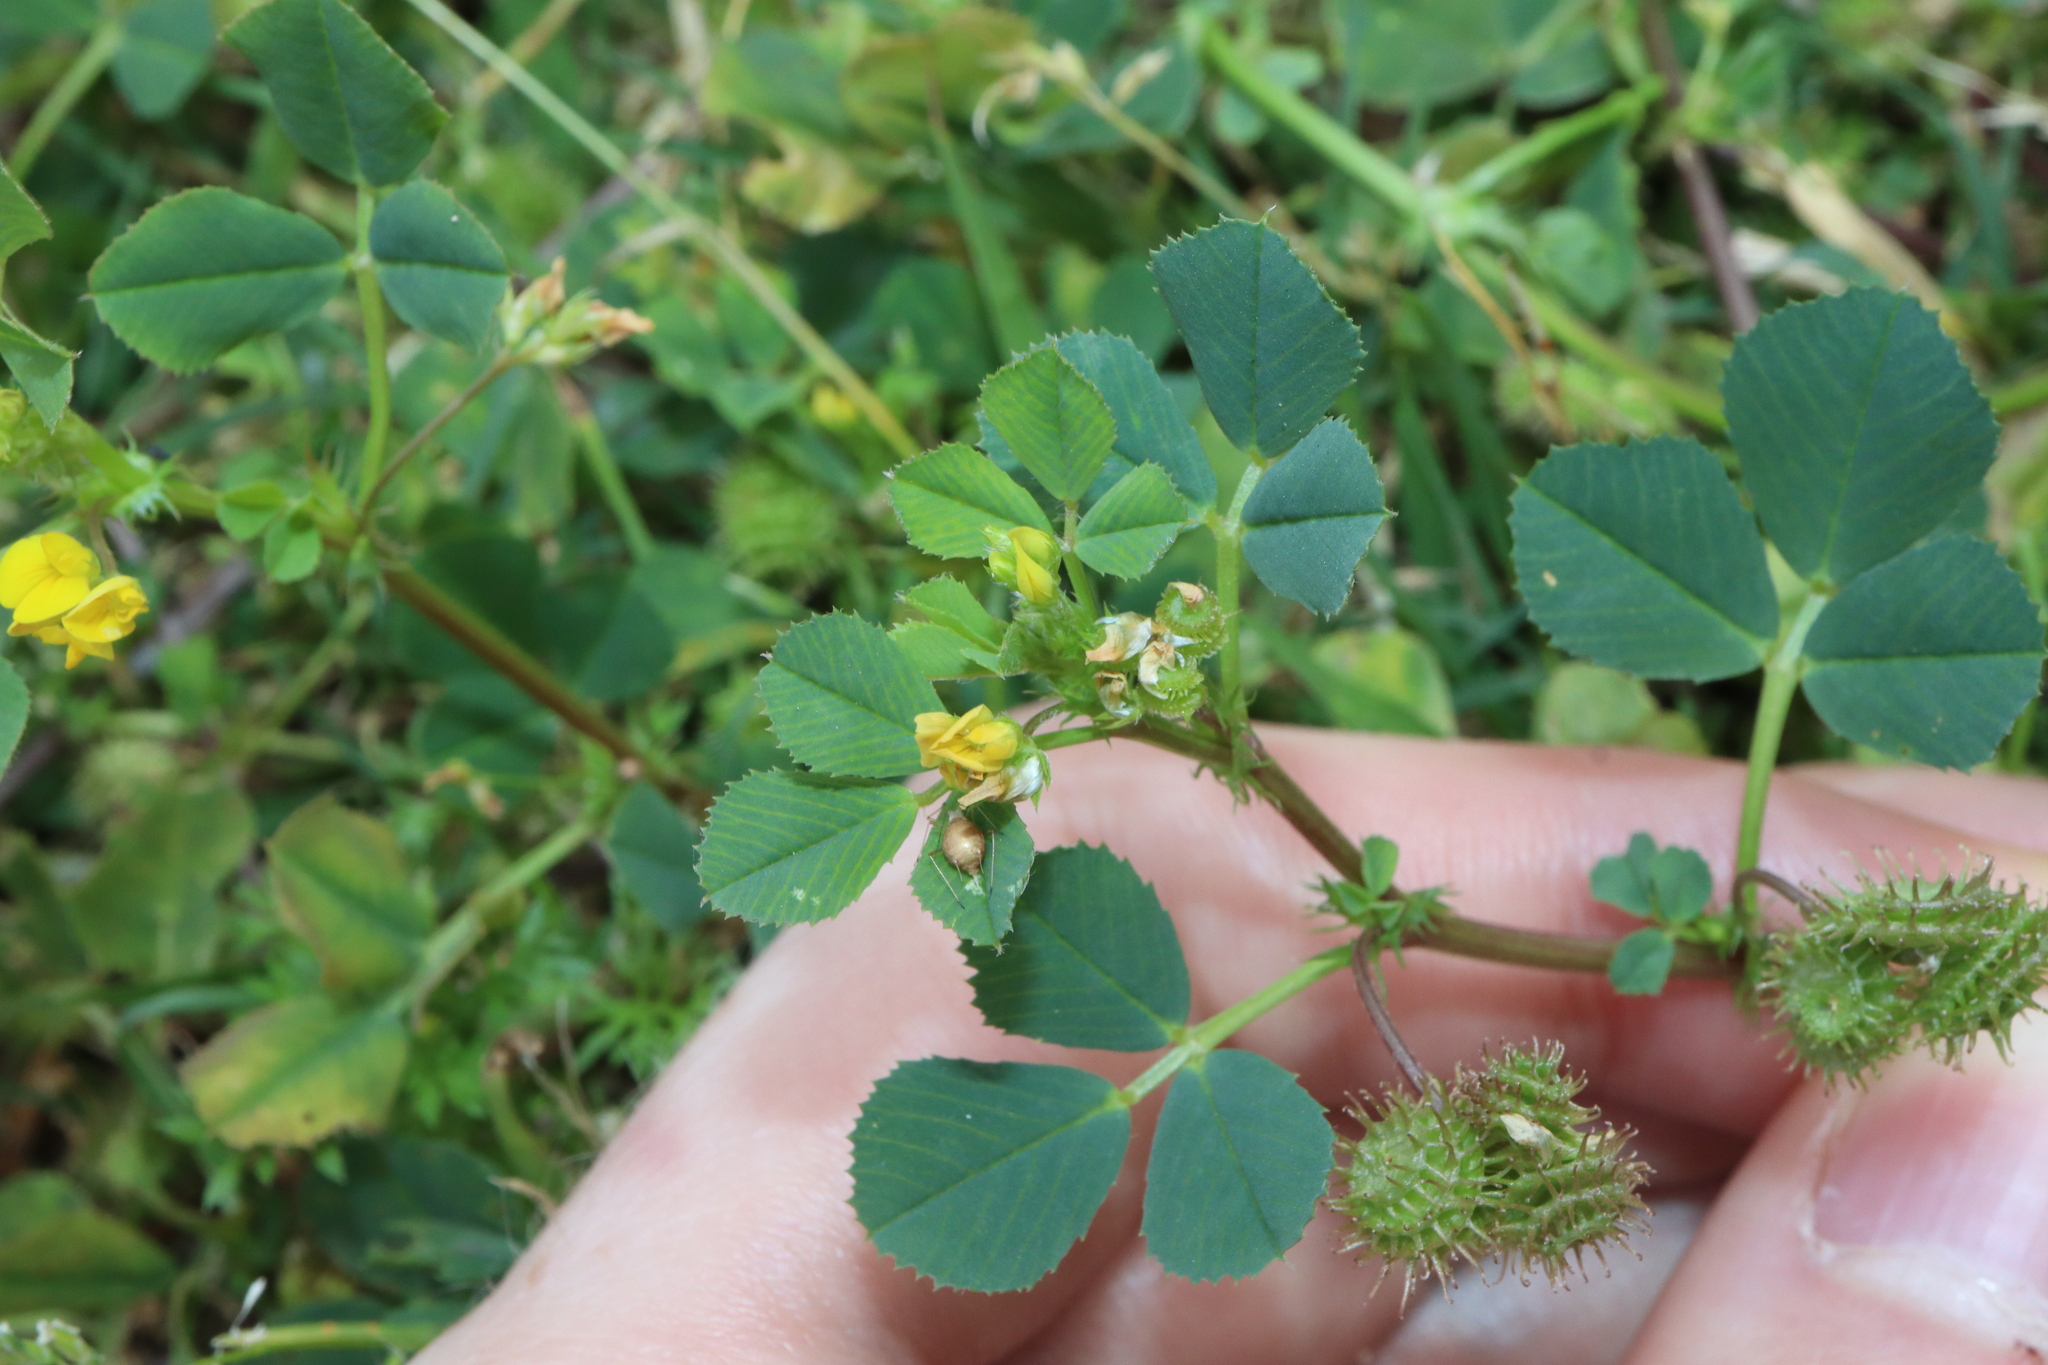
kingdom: Plantae
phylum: Tracheophyta
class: Magnoliopsida
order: Fabales
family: Fabaceae
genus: Medicago
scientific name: Medicago polymorpha
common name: Burclover
